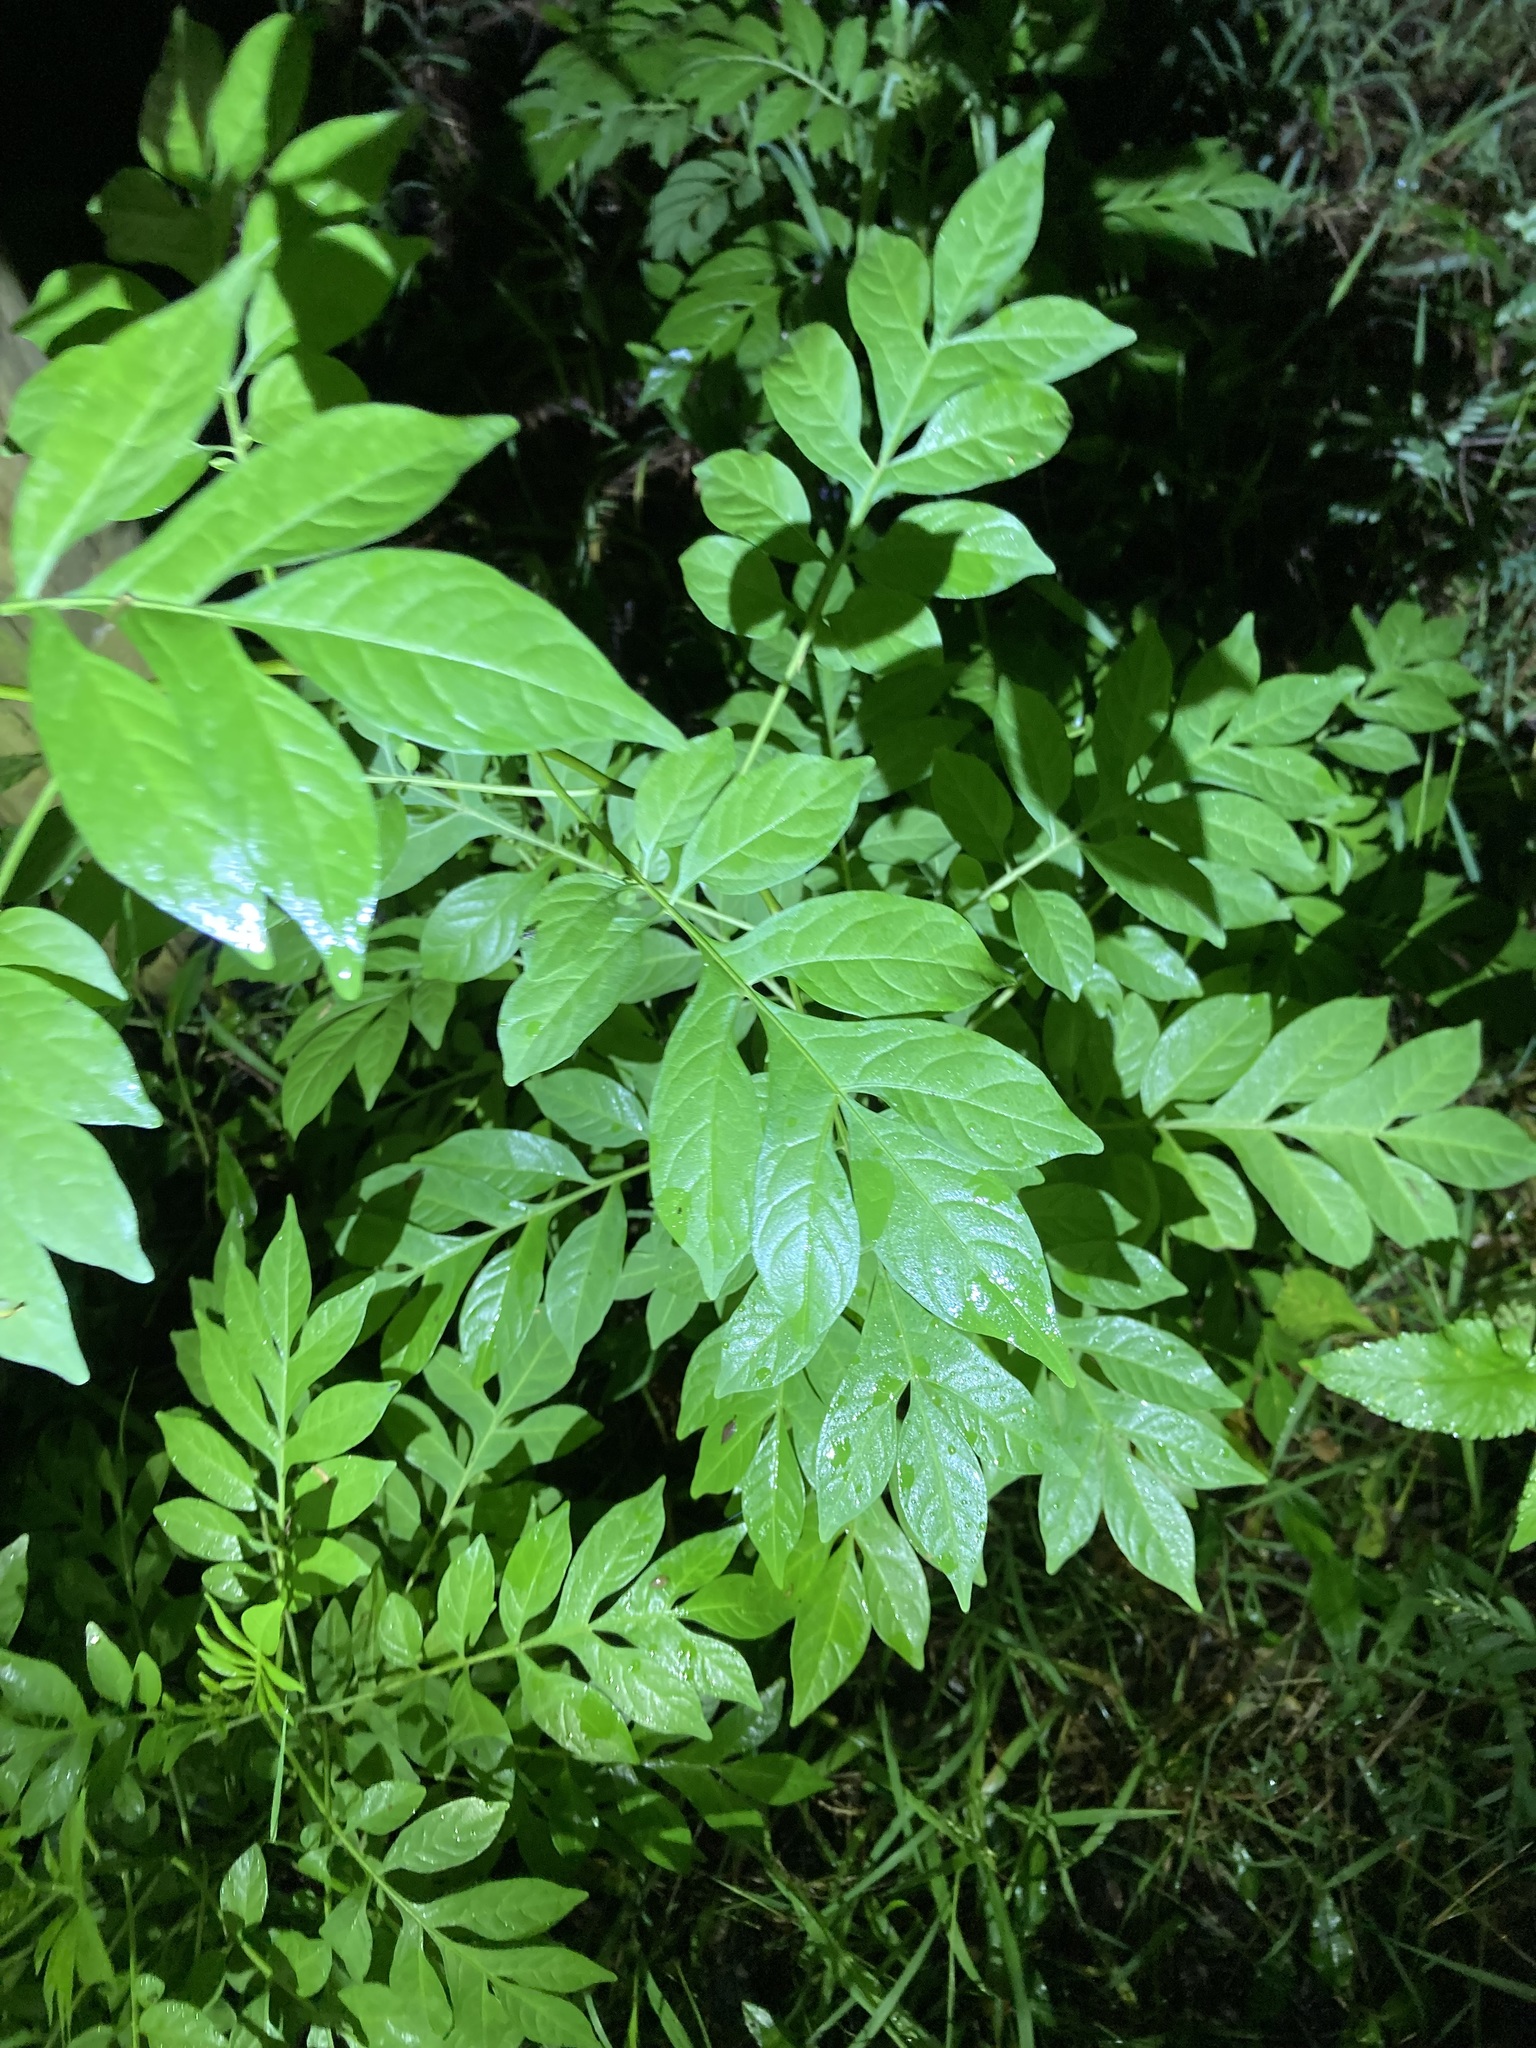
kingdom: Plantae
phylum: Tracheophyta
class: Magnoliopsida
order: Solanales
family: Solanaceae
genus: Solanum
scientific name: Solanum seaforthianum
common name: Brazilian nightshade
